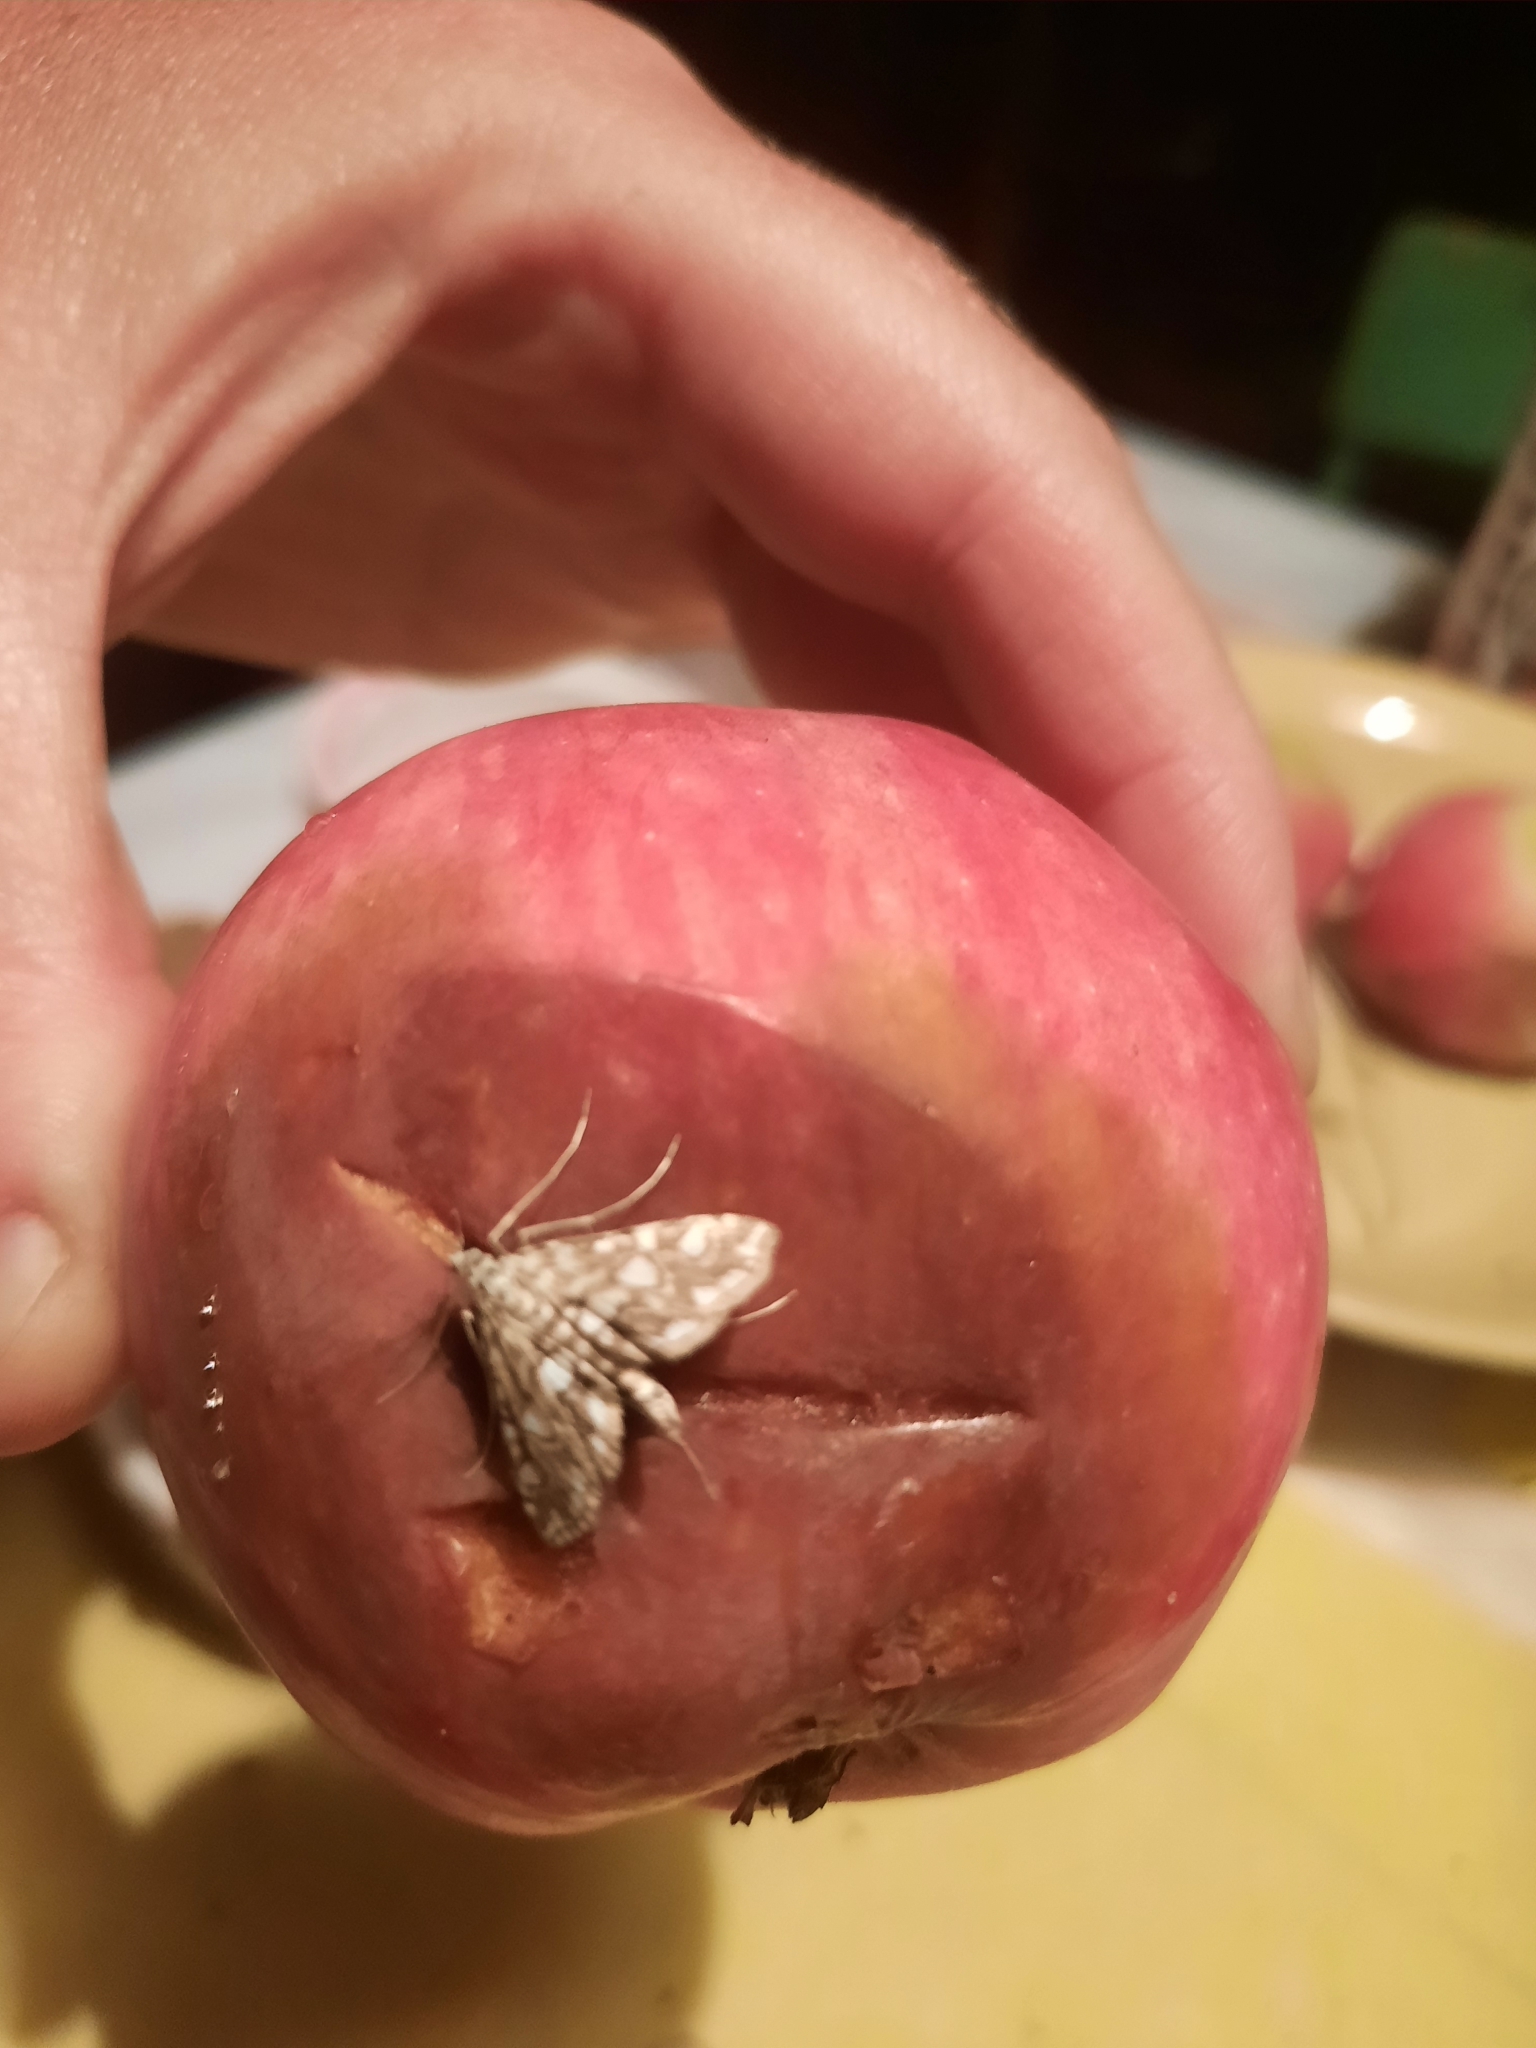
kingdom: Animalia
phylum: Arthropoda
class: Insecta
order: Lepidoptera
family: Crambidae
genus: Elophila
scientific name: Elophila nymphaeata
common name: Brown china-mark
